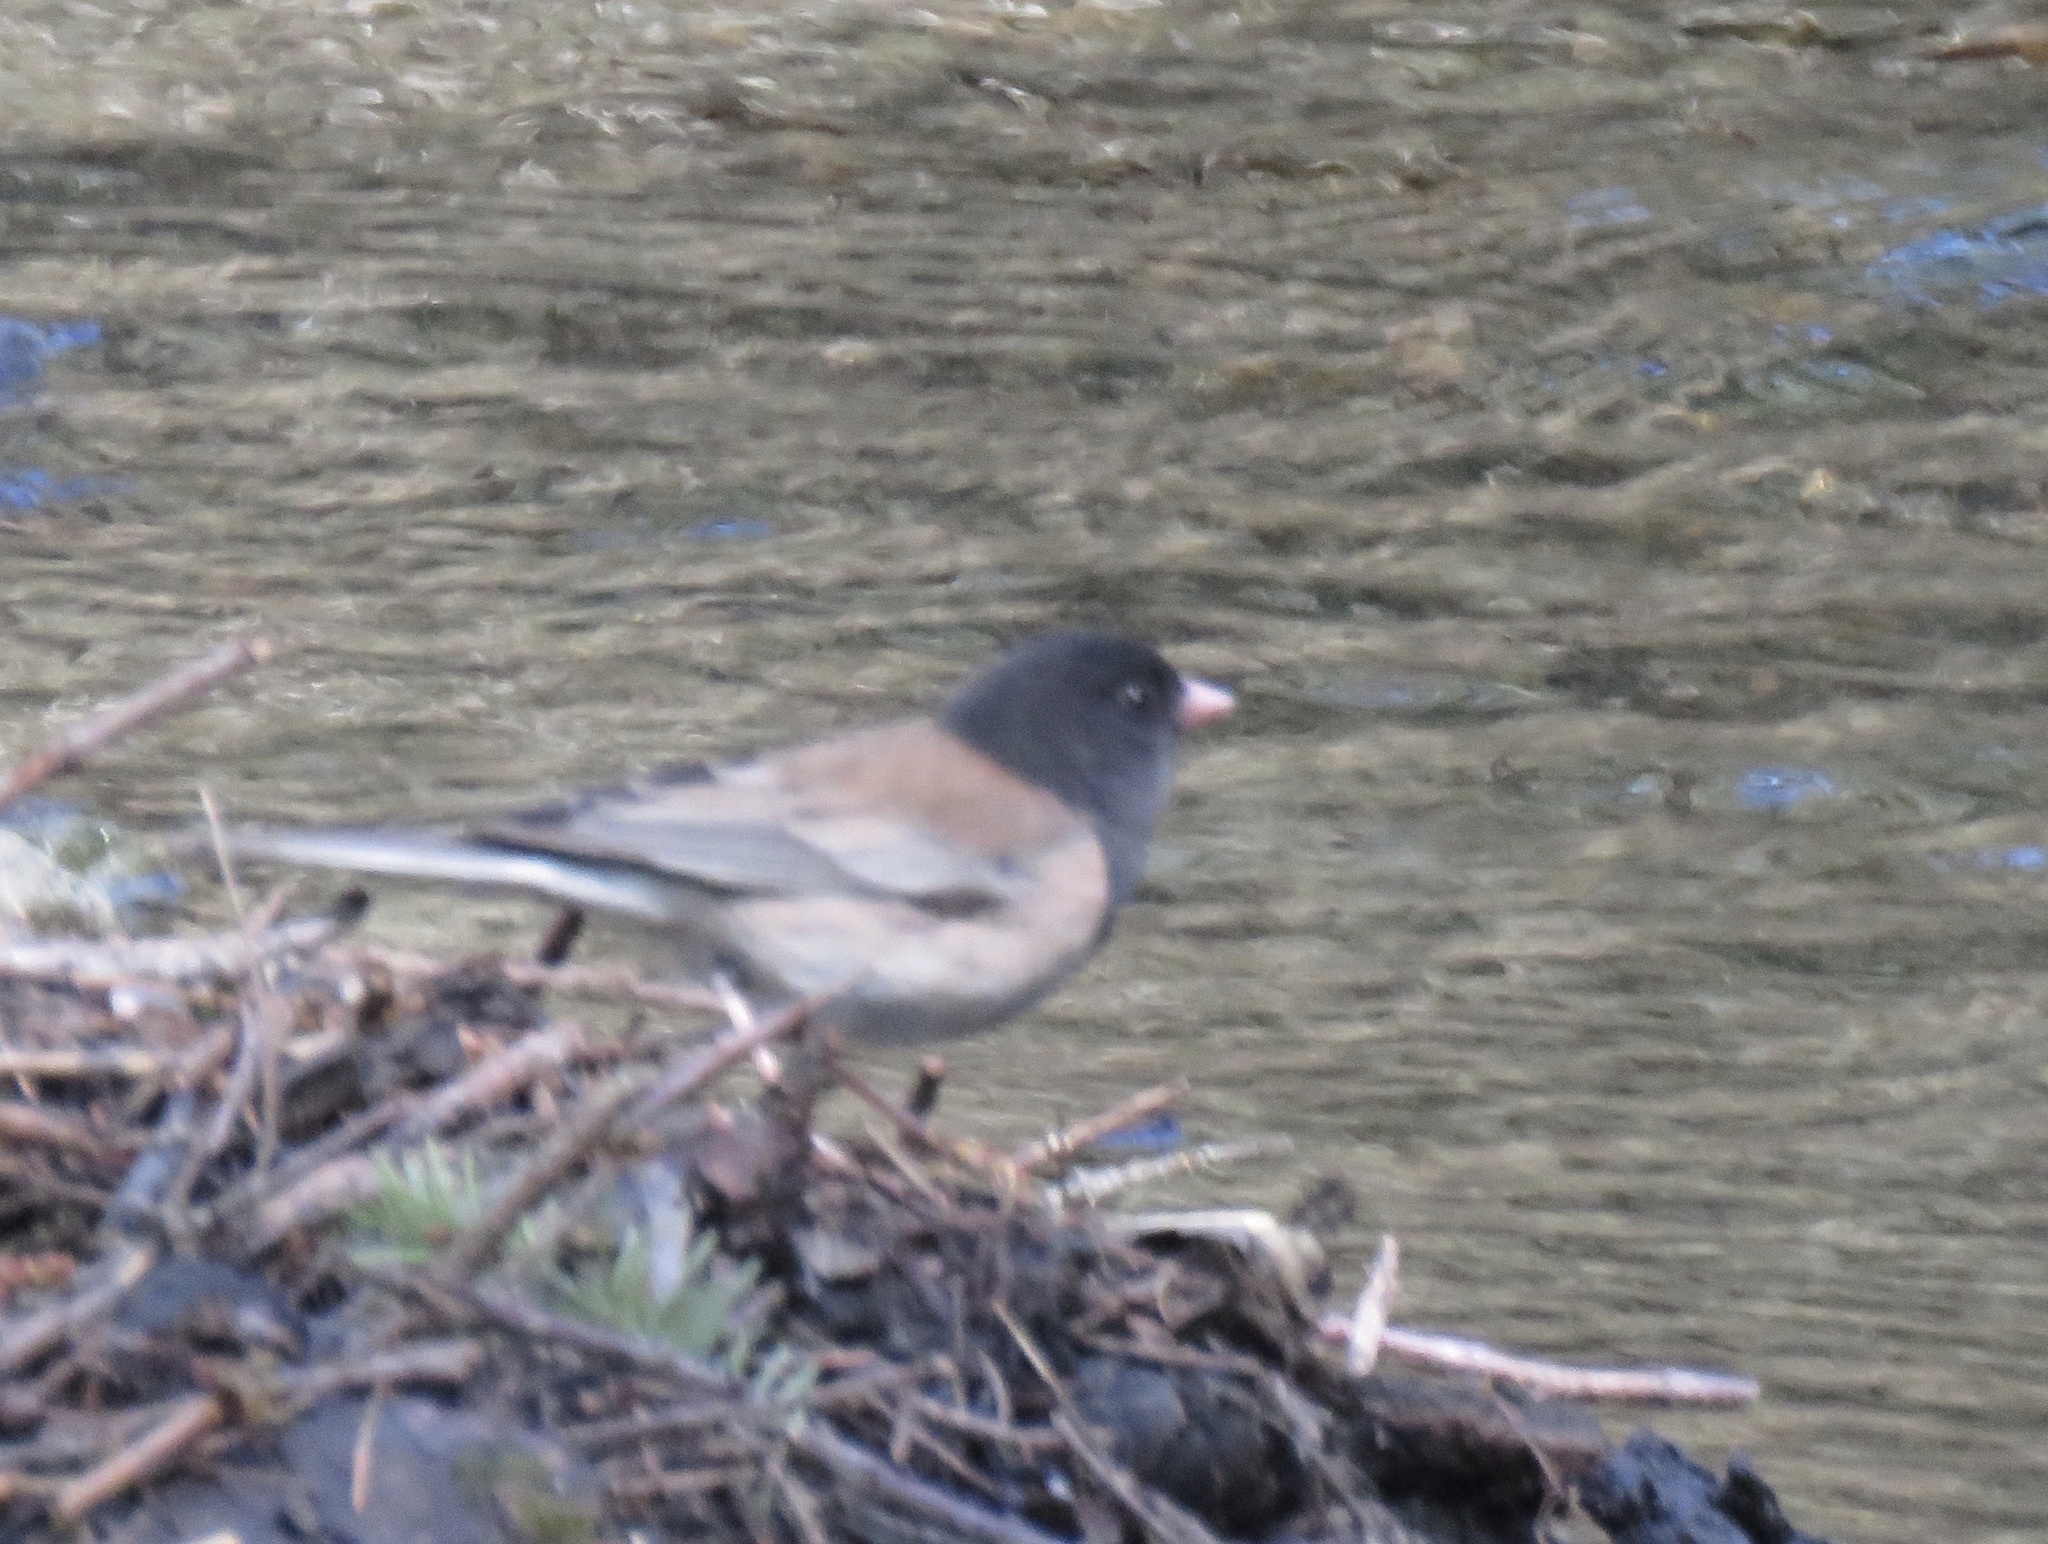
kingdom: Animalia
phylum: Chordata
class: Aves
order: Passeriformes
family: Passerellidae
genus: Junco
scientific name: Junco hyemalis
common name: Dark-eyed junco
